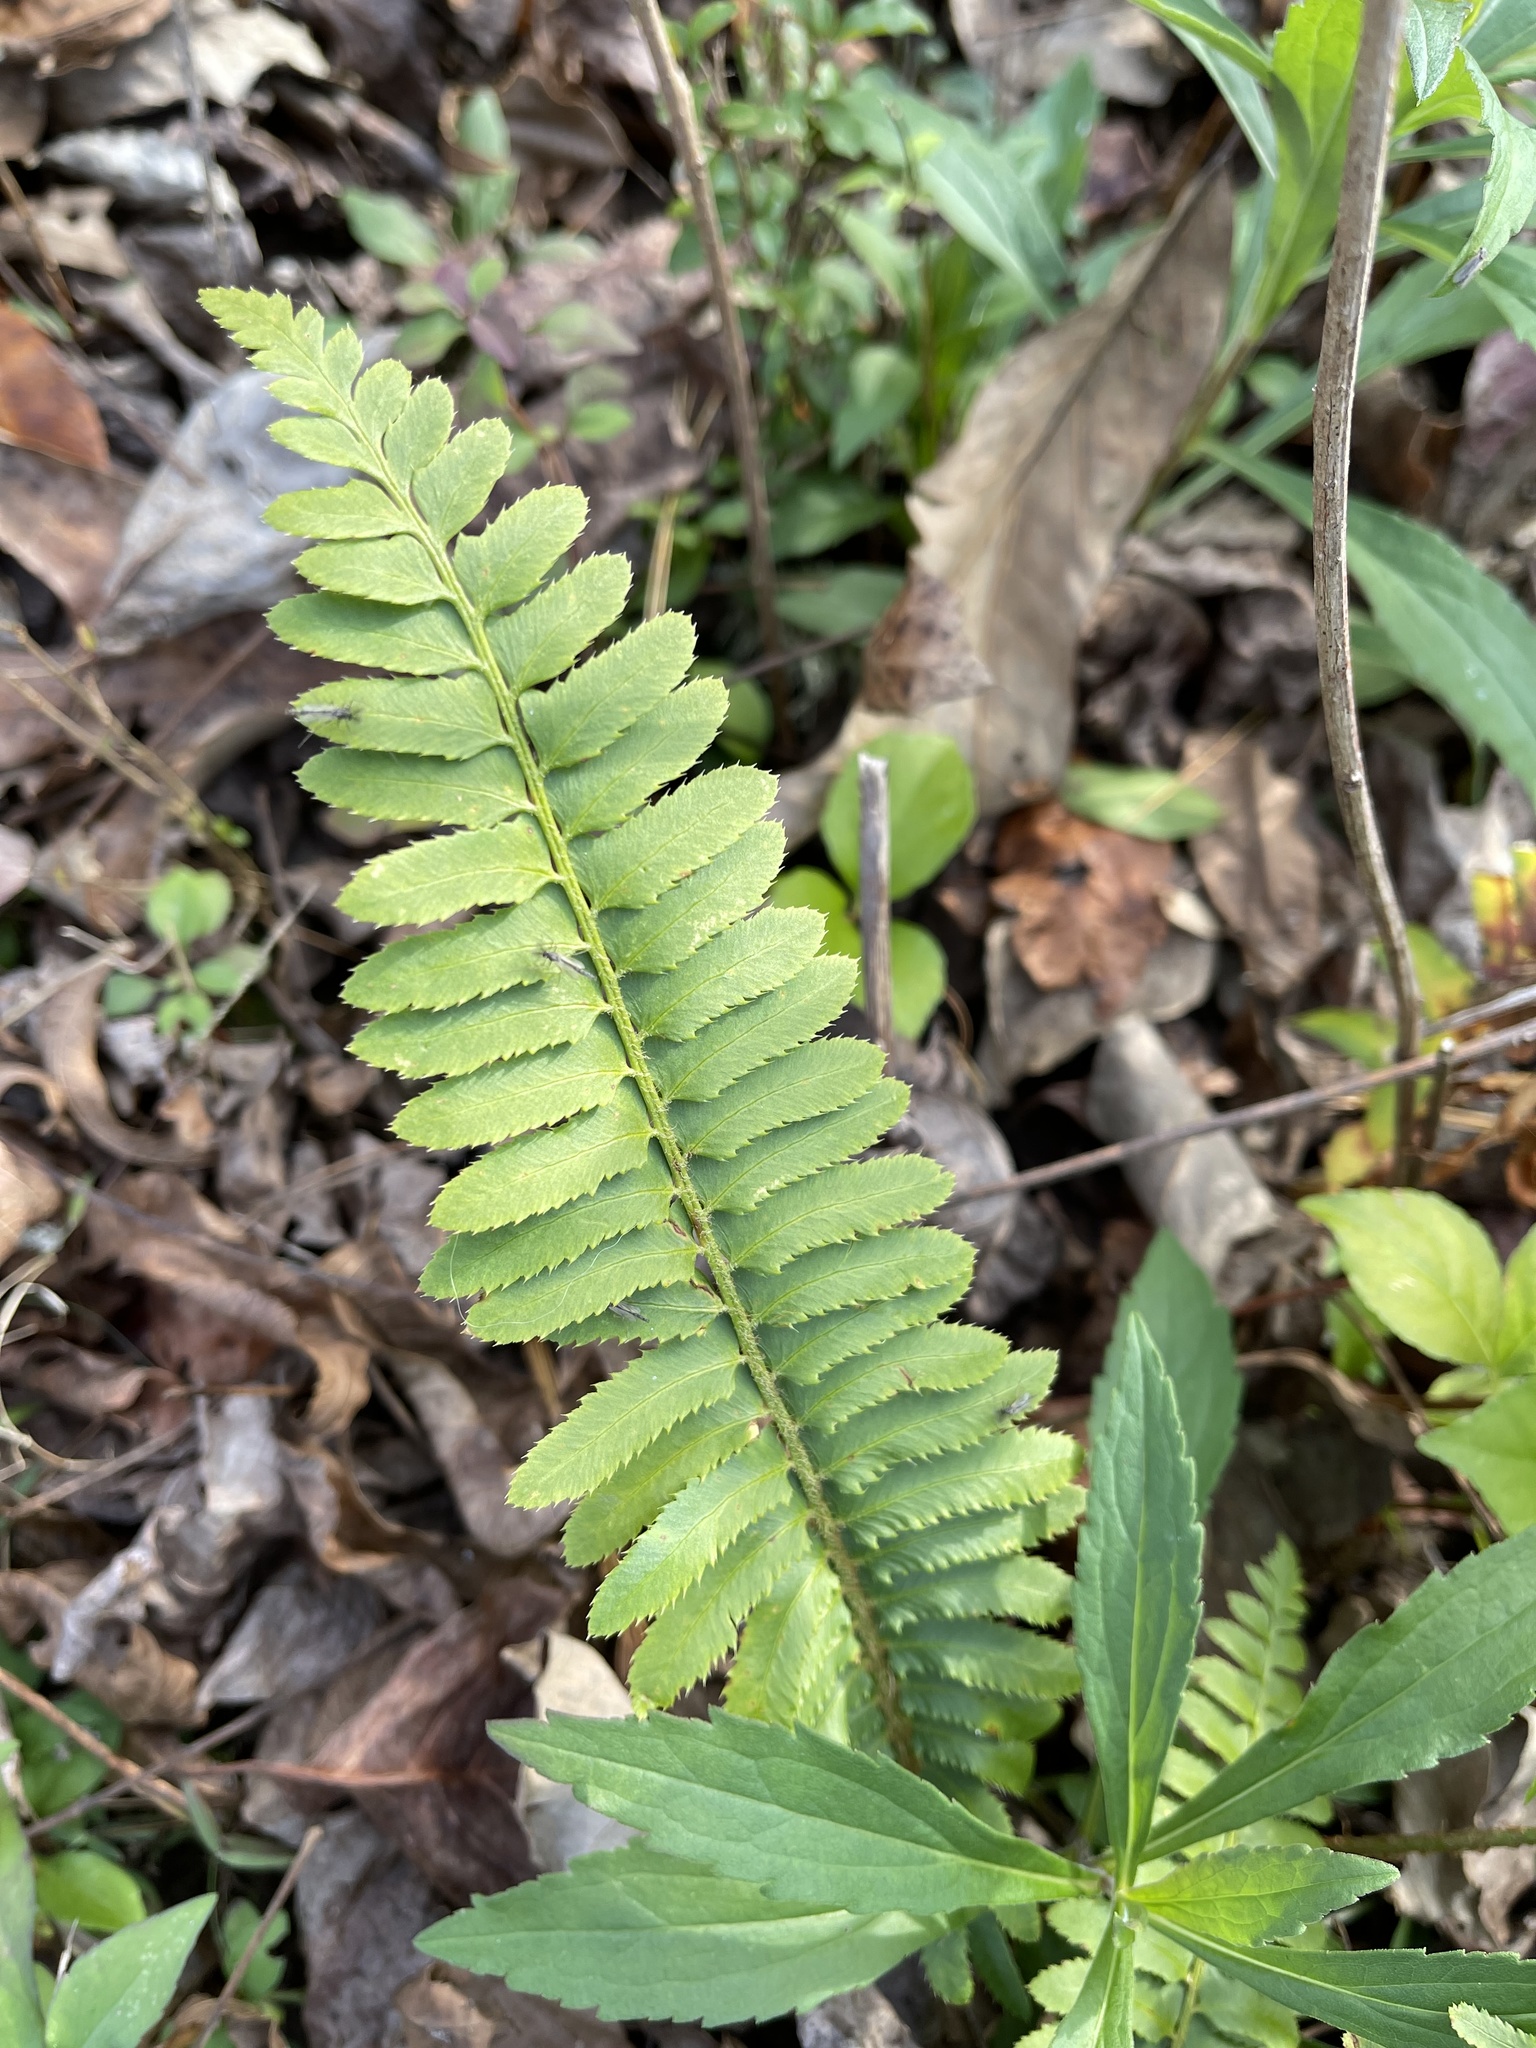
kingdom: Plantae
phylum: Tracheophyta
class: Polypodiopsida
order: Polypodiales
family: Dryopteridaceae
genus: Polystichum
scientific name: Polystichum acrostichoides
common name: Christmas fern
